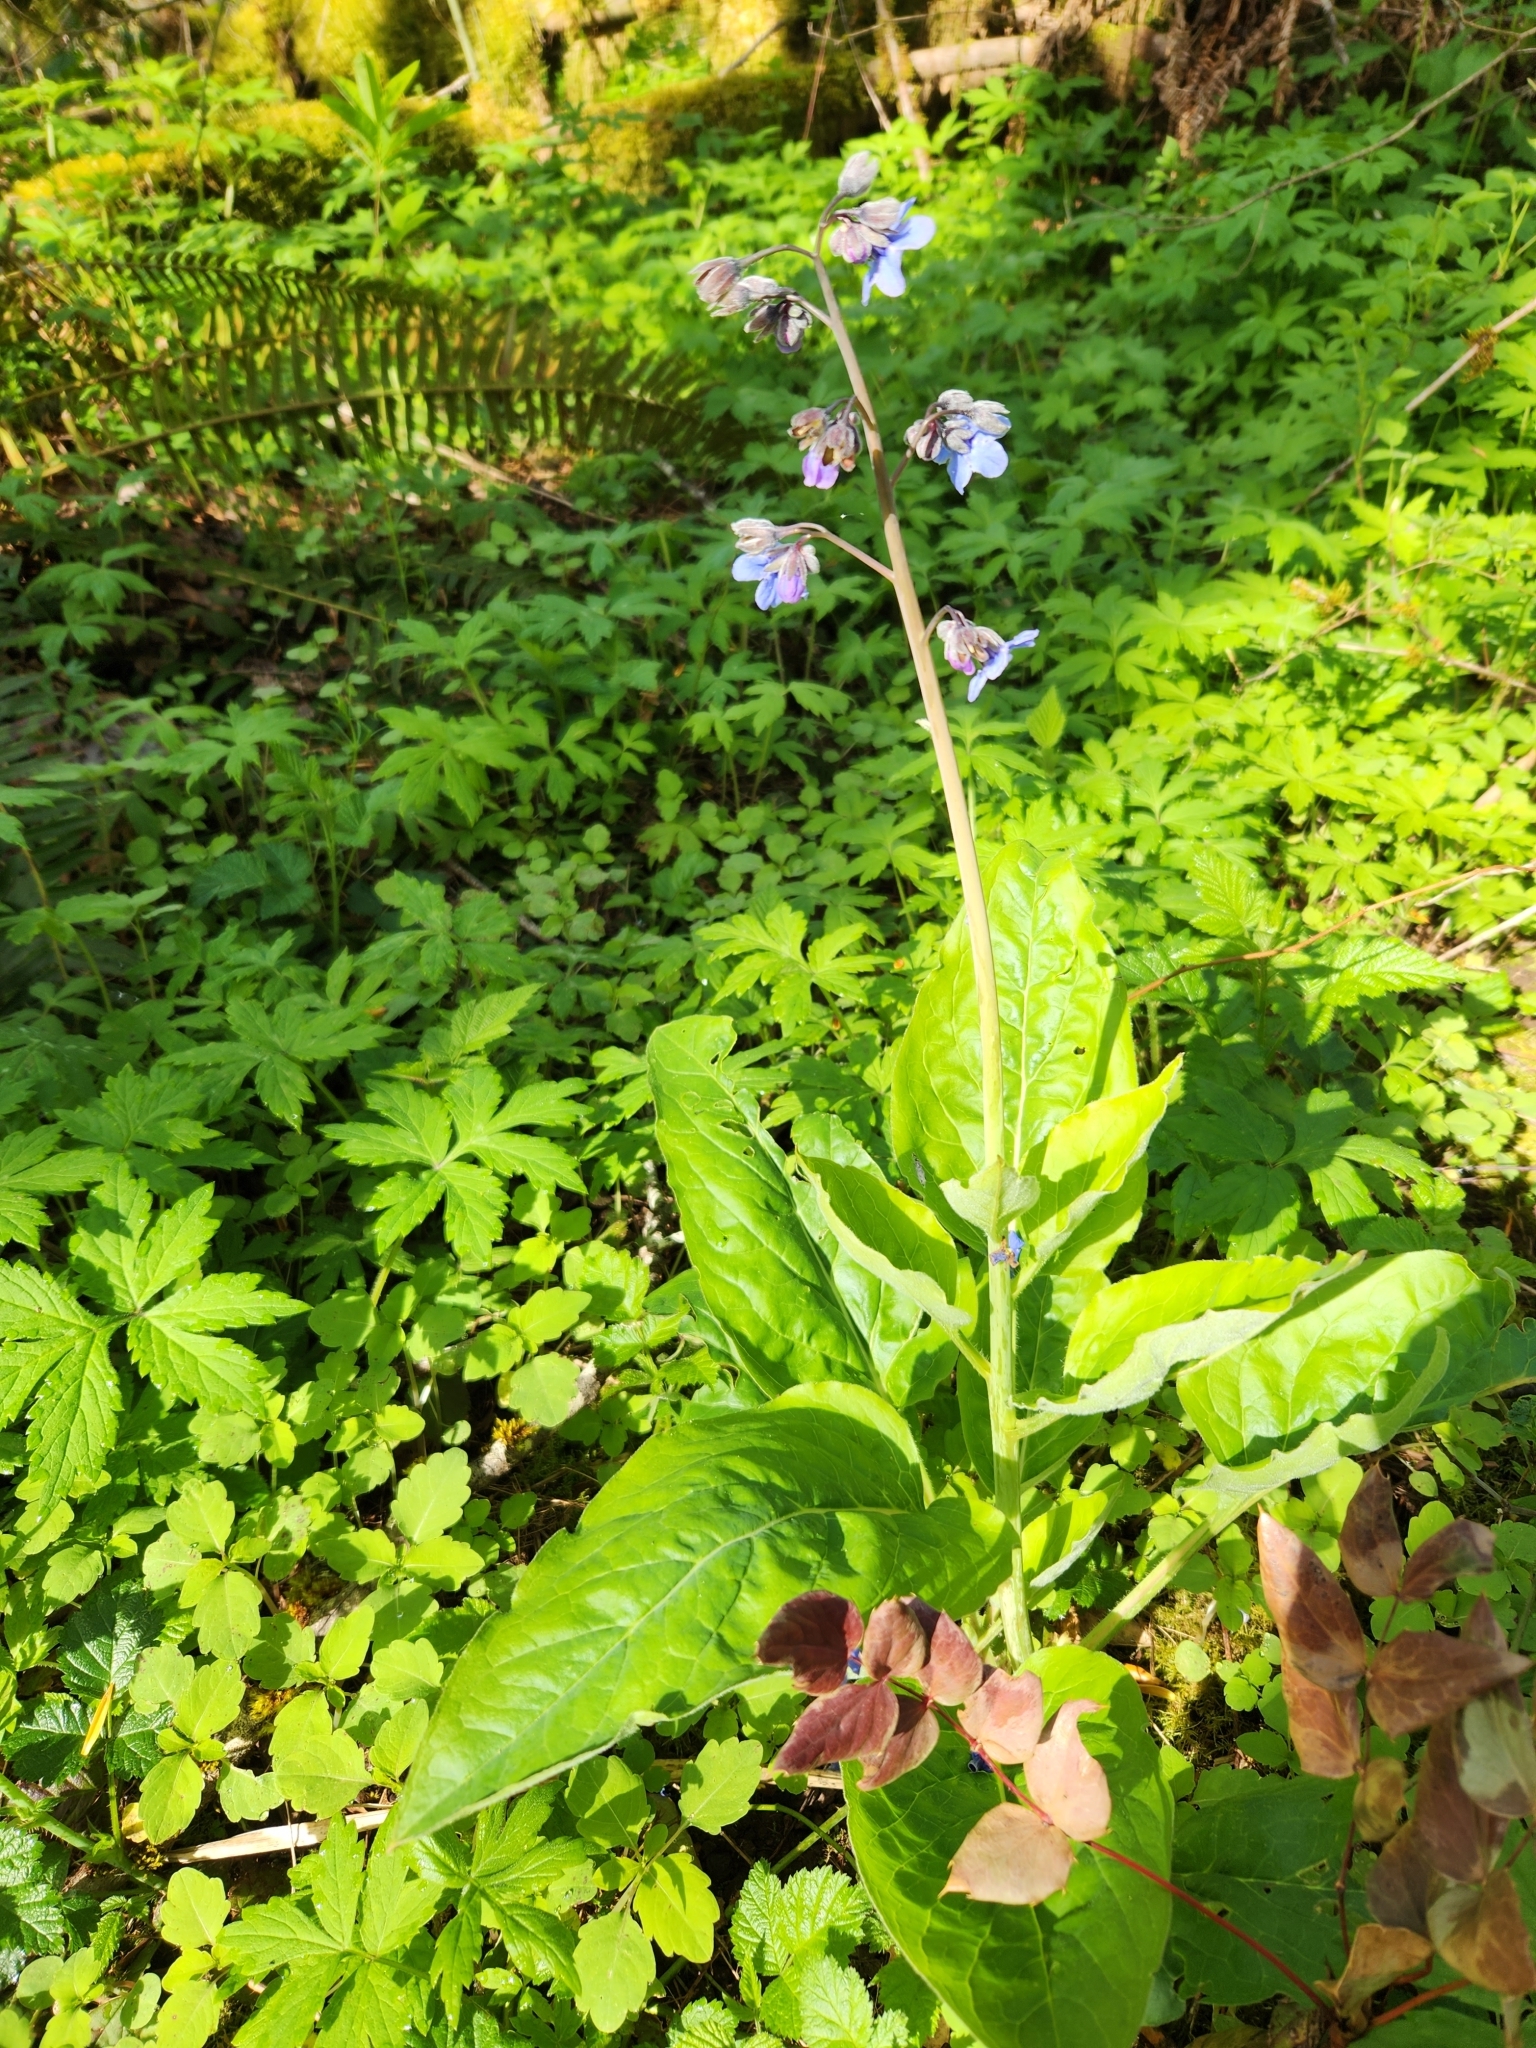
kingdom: Plantae
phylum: Tracheophyta
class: Magnoliopsida
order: Boraginales
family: Boraginaceae
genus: Adelinia
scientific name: Adelinia grande
